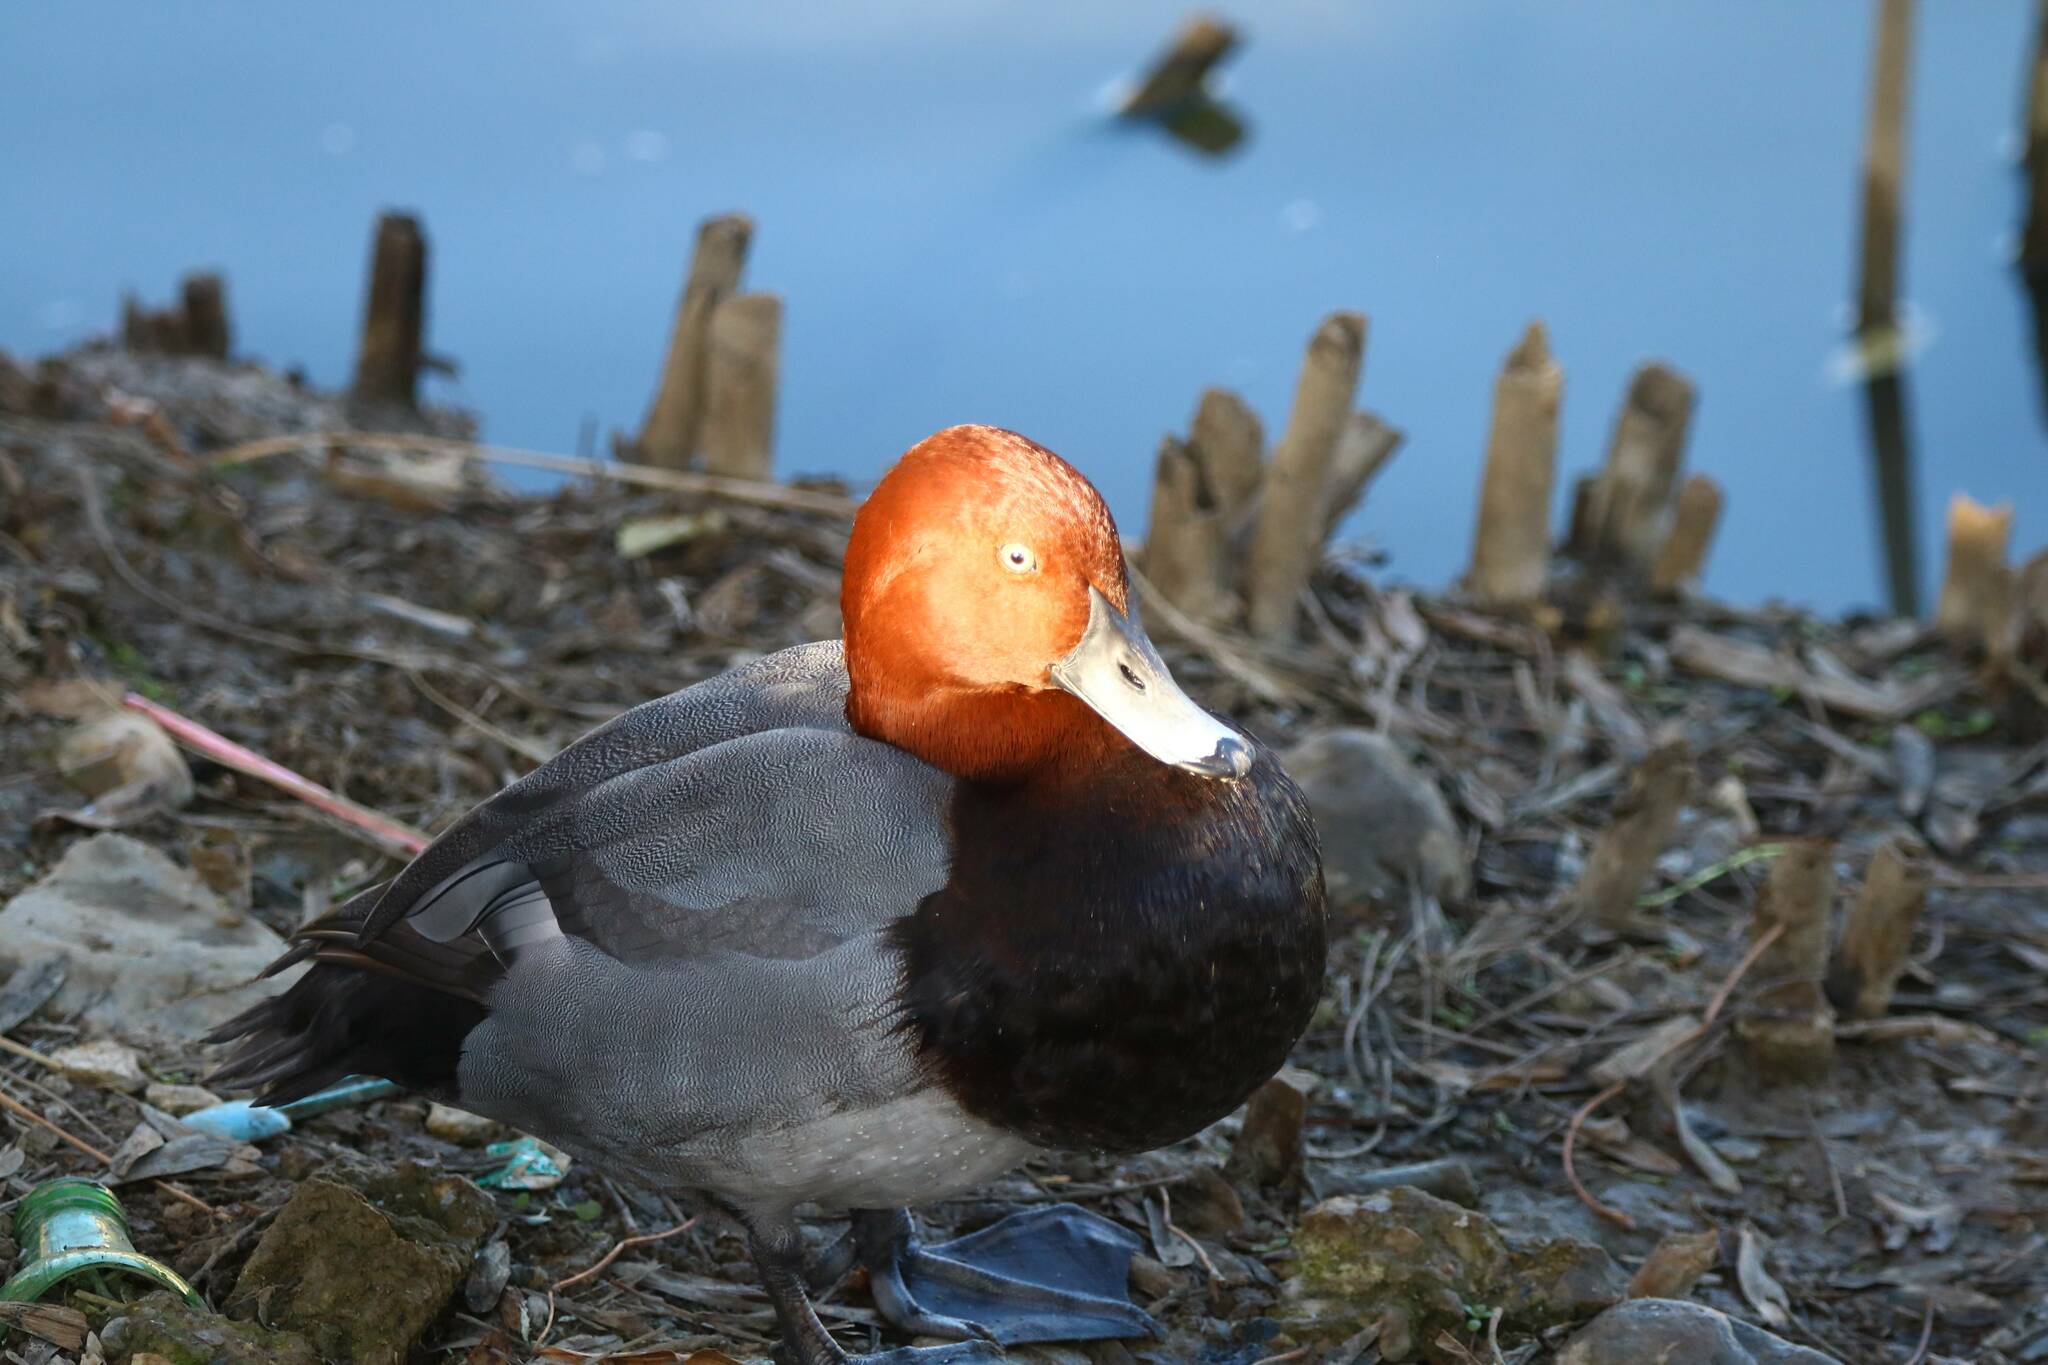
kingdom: Animalia
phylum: Chordata
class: Aves
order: Anseriformes
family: Anatidae
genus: Aythya
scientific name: Aythya ferina
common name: Common pochard
